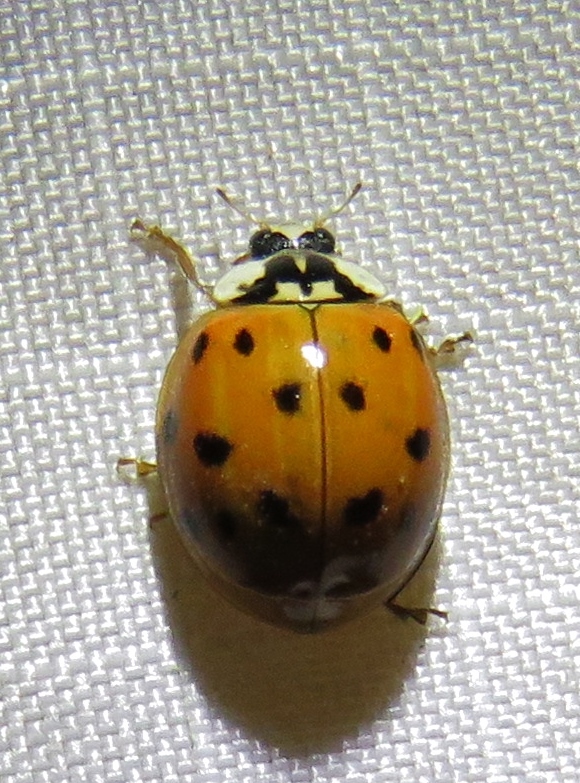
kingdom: Animalia
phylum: Arthropoda
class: Insecta
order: Coleoptera
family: Coccinellidae
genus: Harmonia
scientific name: Harmonia axyridis
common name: Harlequin ladybird
